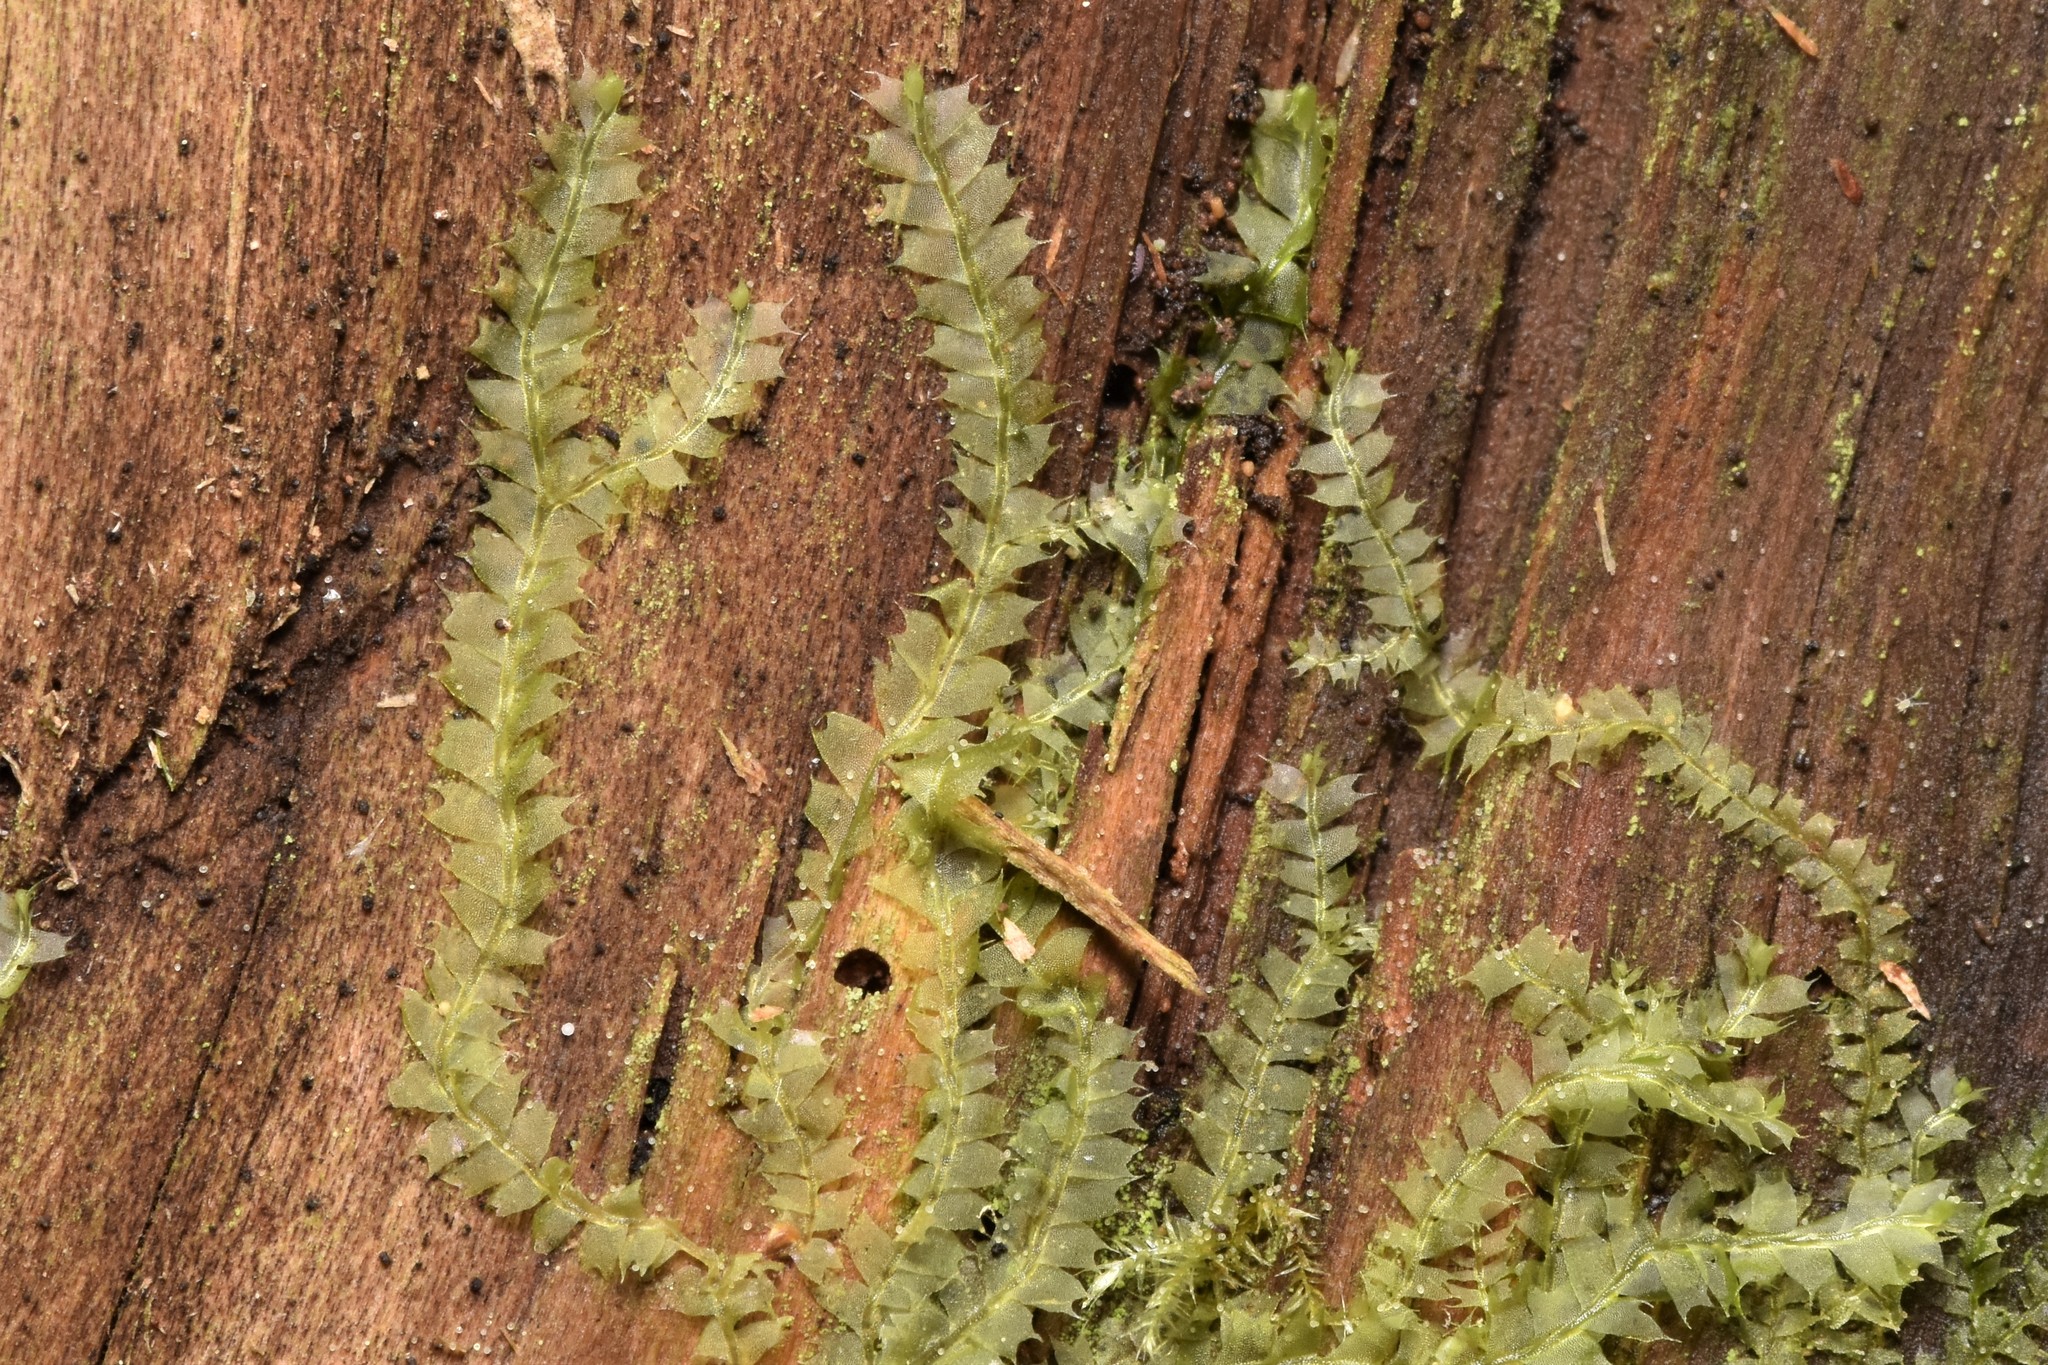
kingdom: Plantae
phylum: Marchantiophyta
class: Jungermanniopsida
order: Jungermanniales
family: Lophocoleaceae
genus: Lophocolea
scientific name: Lophocolea bidentata
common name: Bifid crestwort
